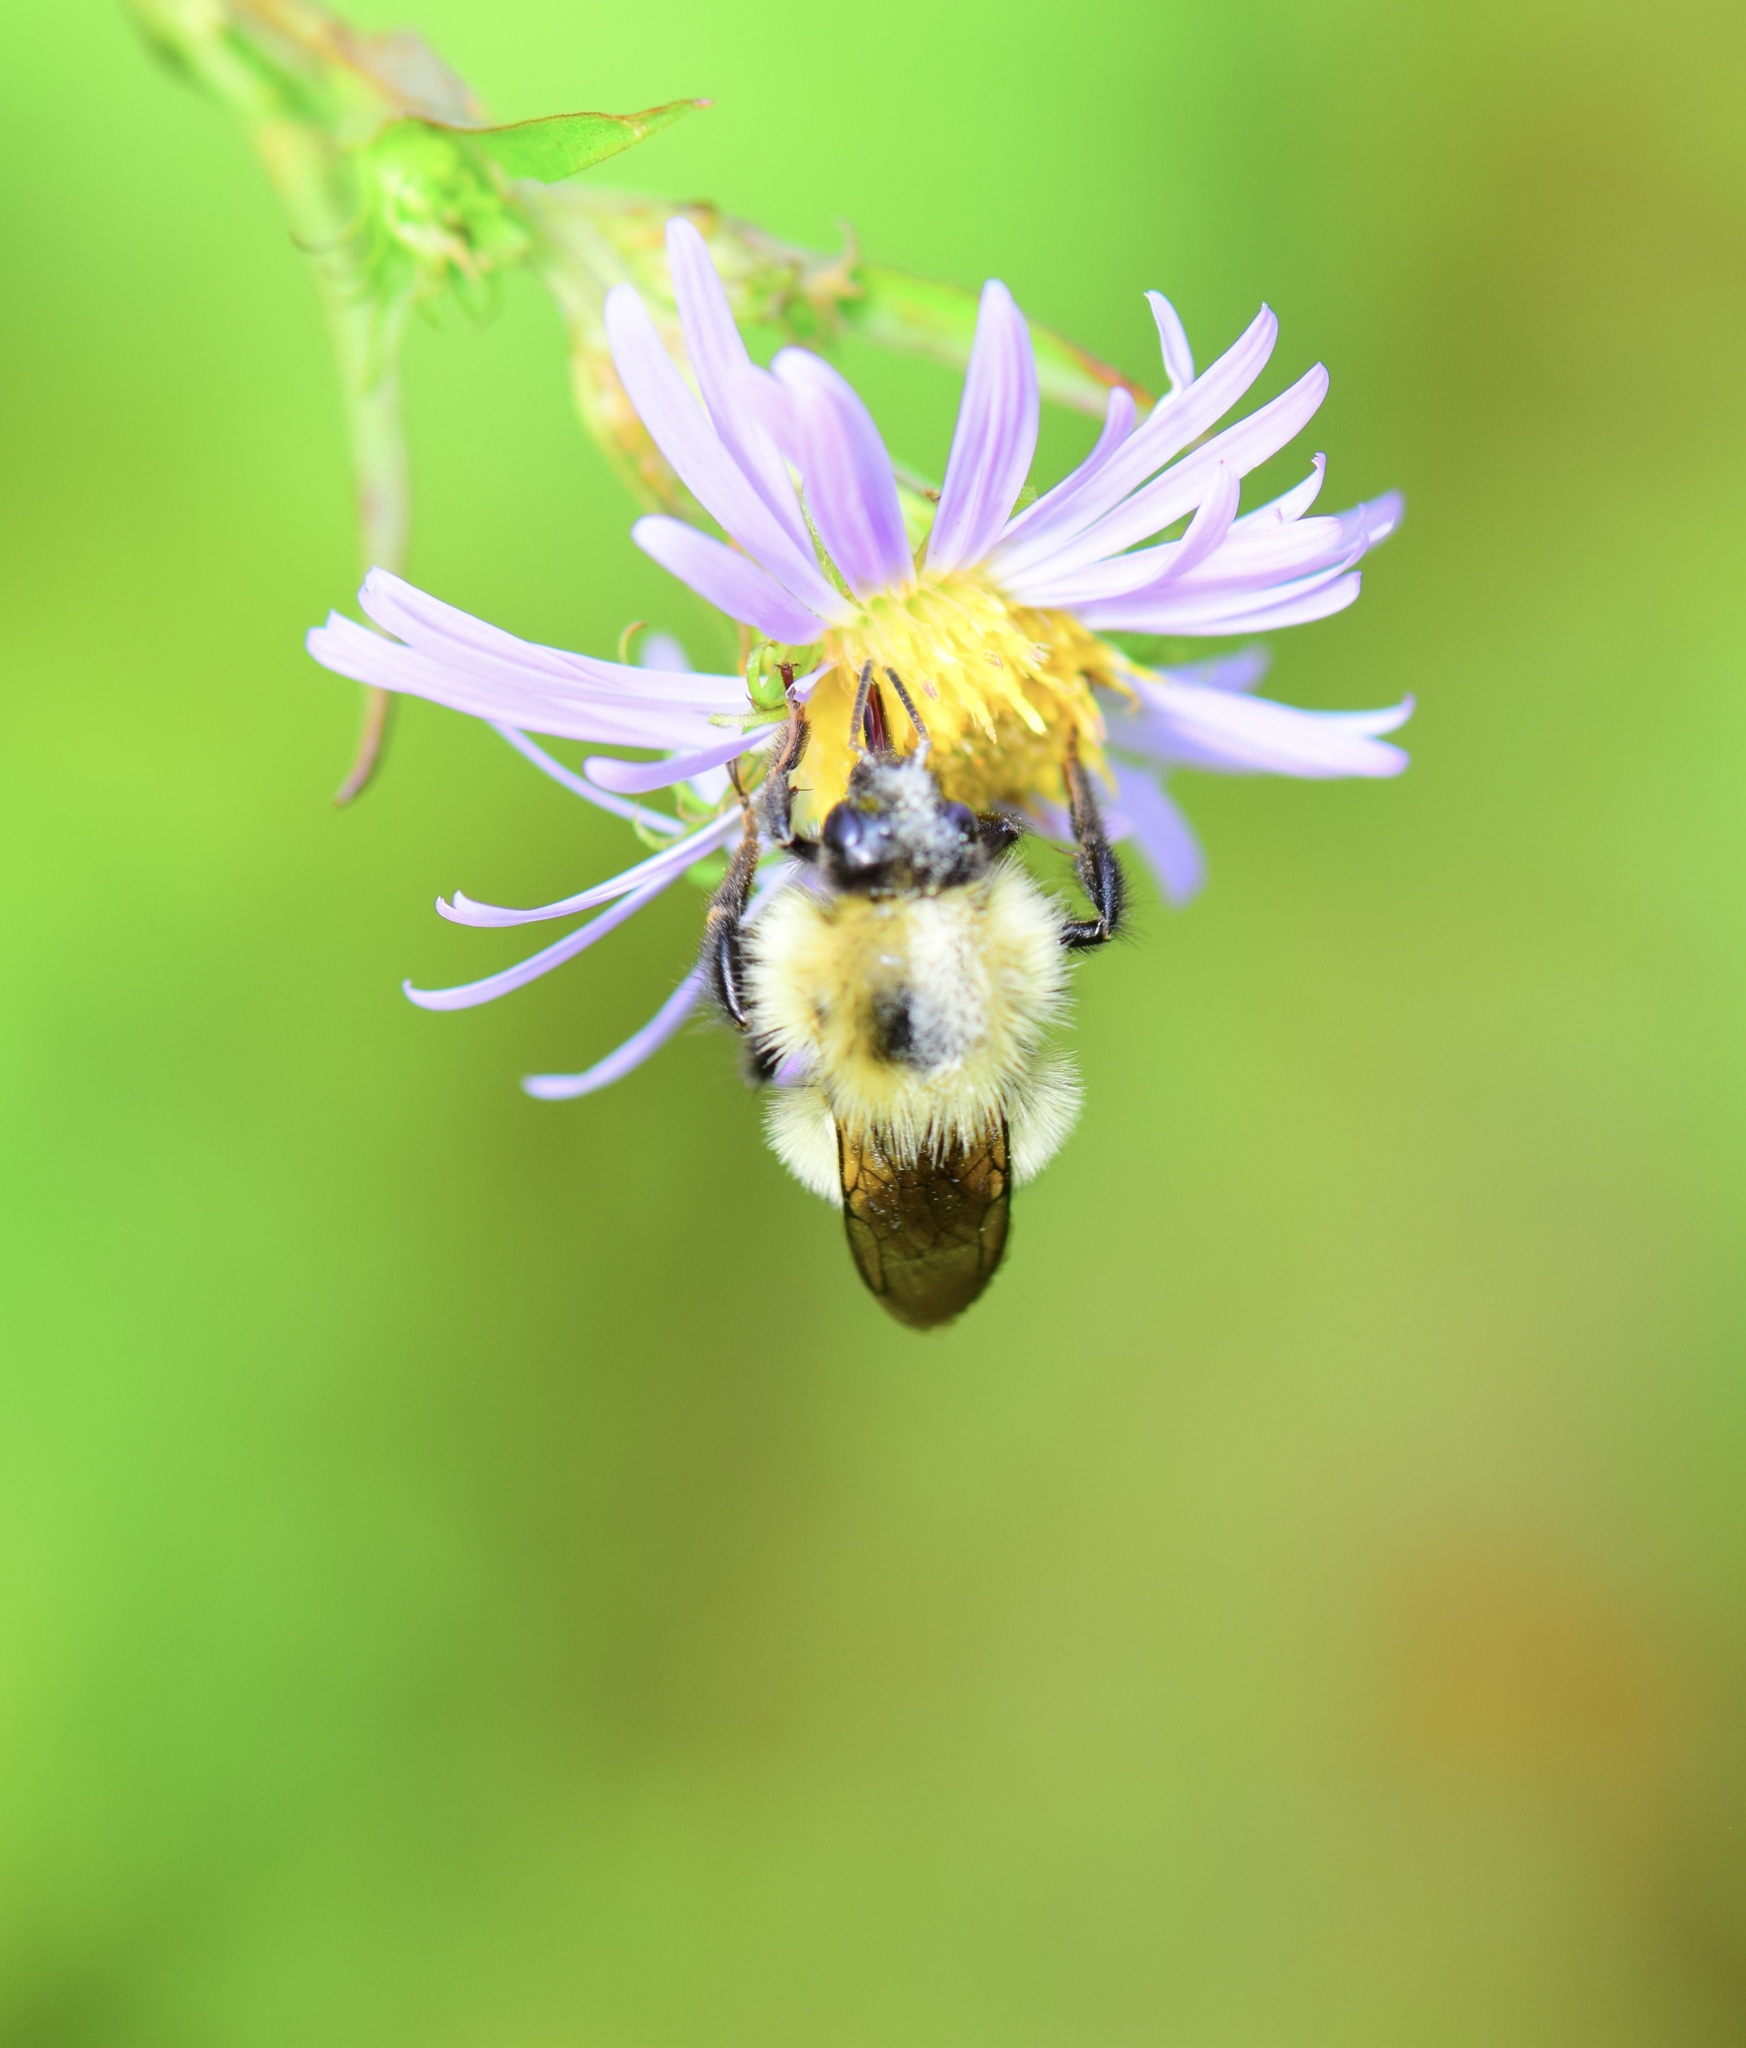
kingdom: Animalia
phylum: Arthropoda
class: Insecta
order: Hymenoptera
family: Apidae
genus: Pyrobombus
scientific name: Pyrobombus
